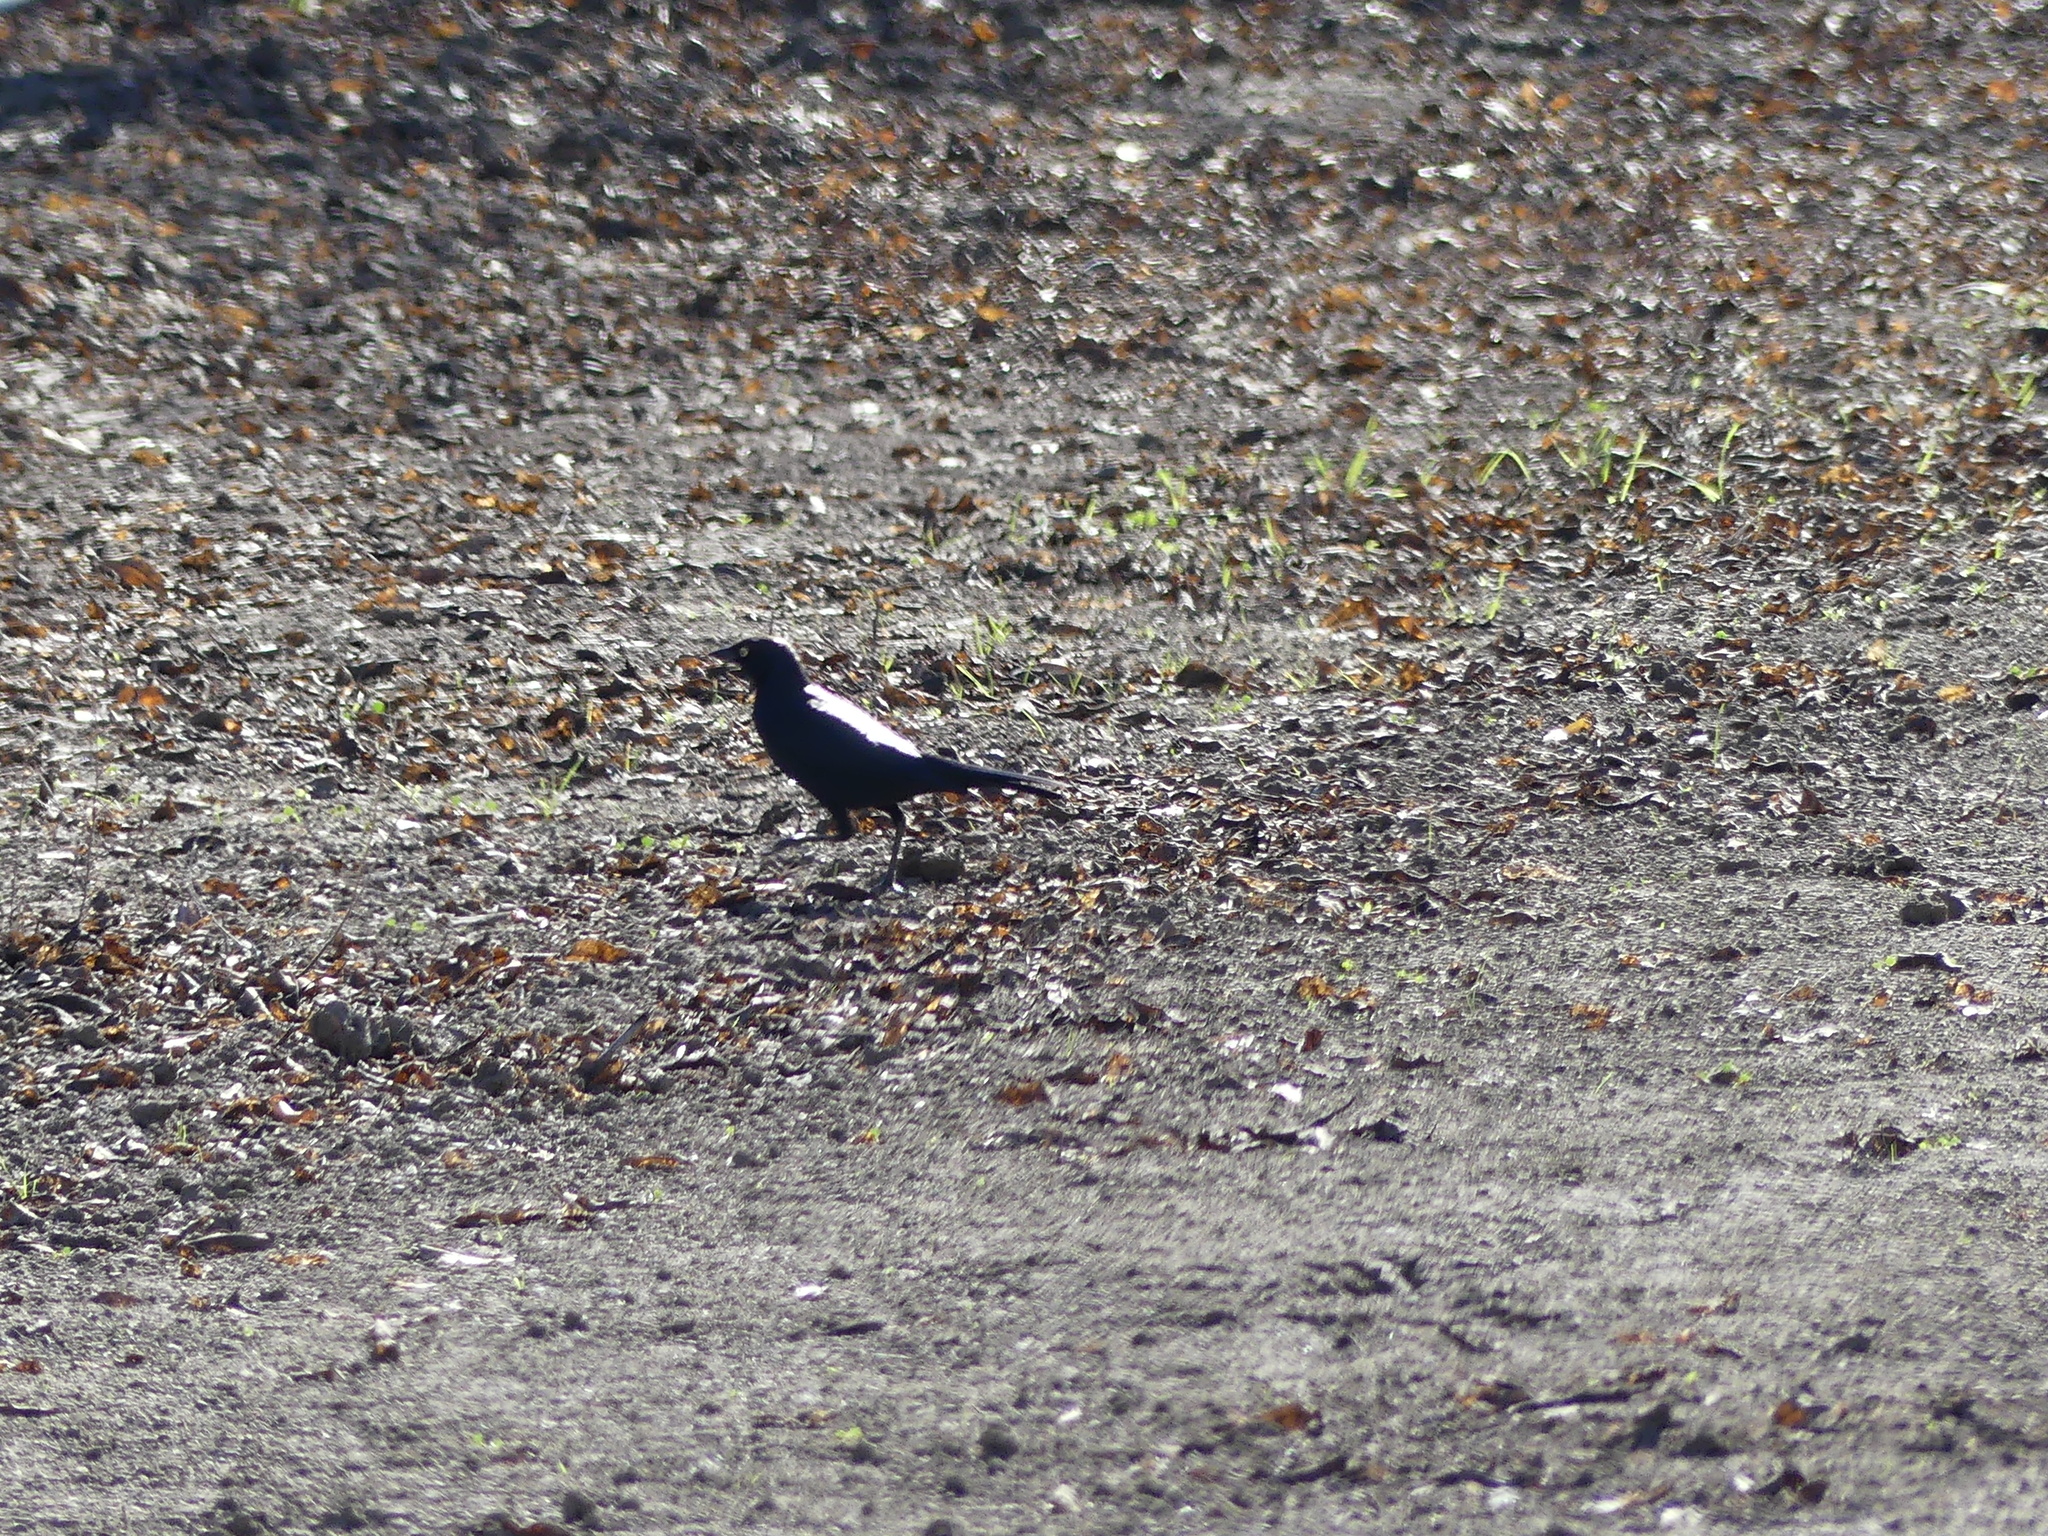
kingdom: Animalia
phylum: Chordata
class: Aves
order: Passeriformes
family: Icteridae
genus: Euphagus
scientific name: Euphagus cyanocephalus
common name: Brewer's blackbird
